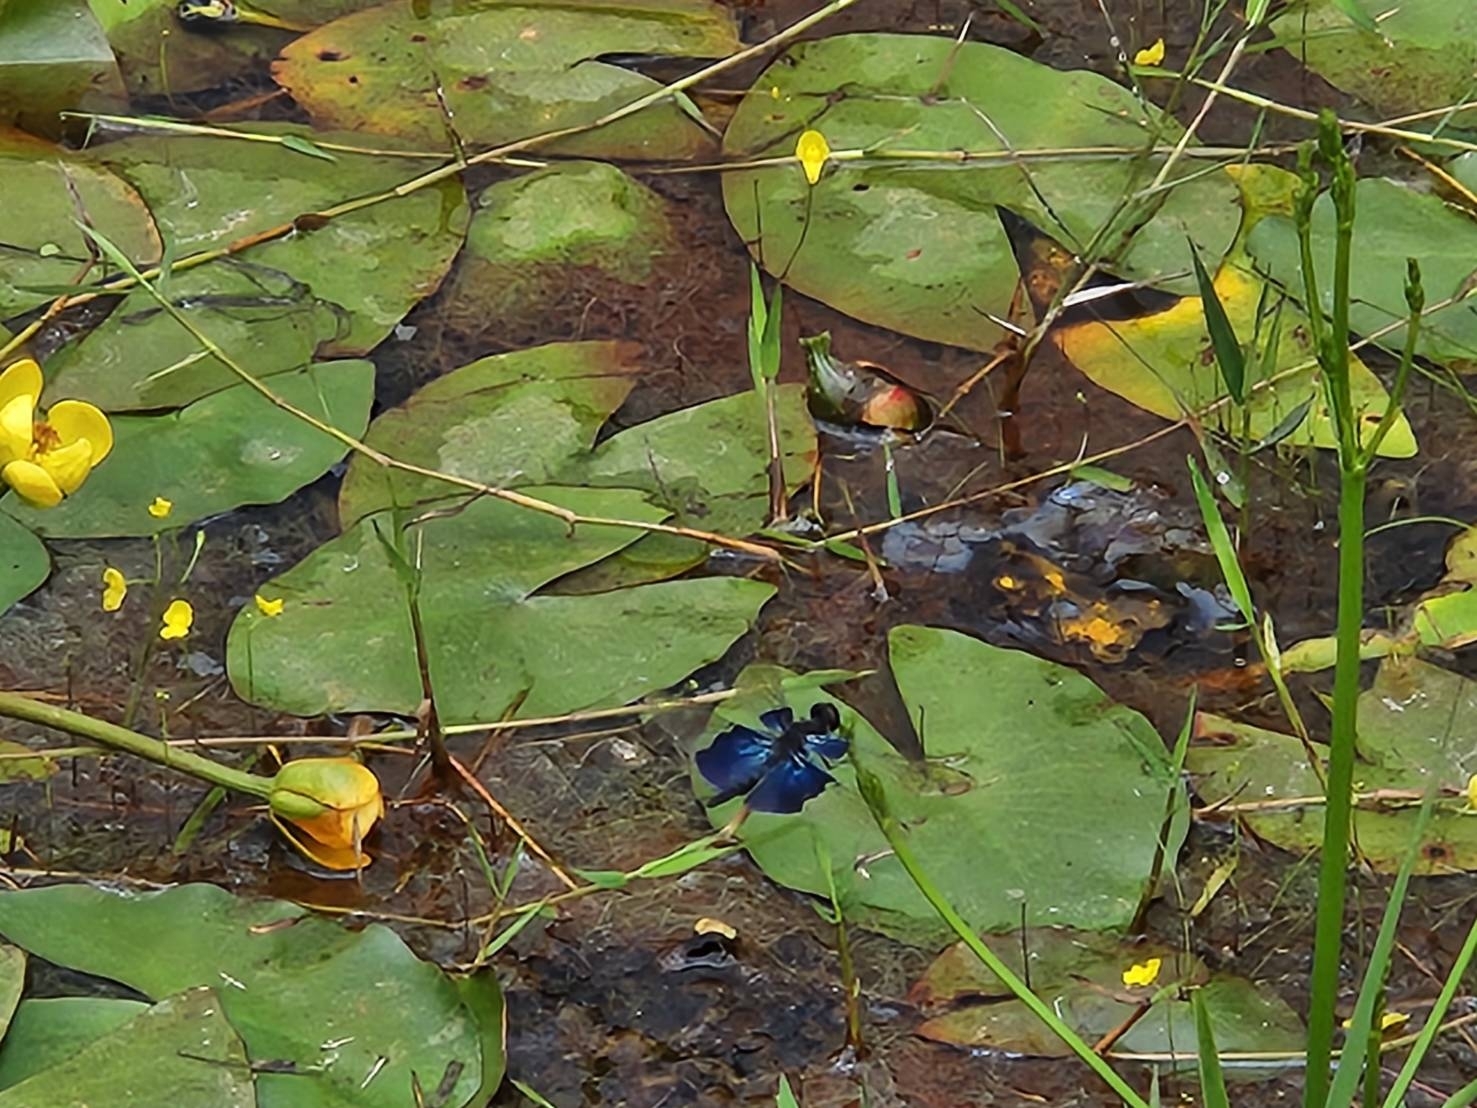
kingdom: Animalia
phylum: Arthropoda
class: Insecta
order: Odonata
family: Libellulidae
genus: Rhyothemis
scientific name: Rhyothemis triangularis
